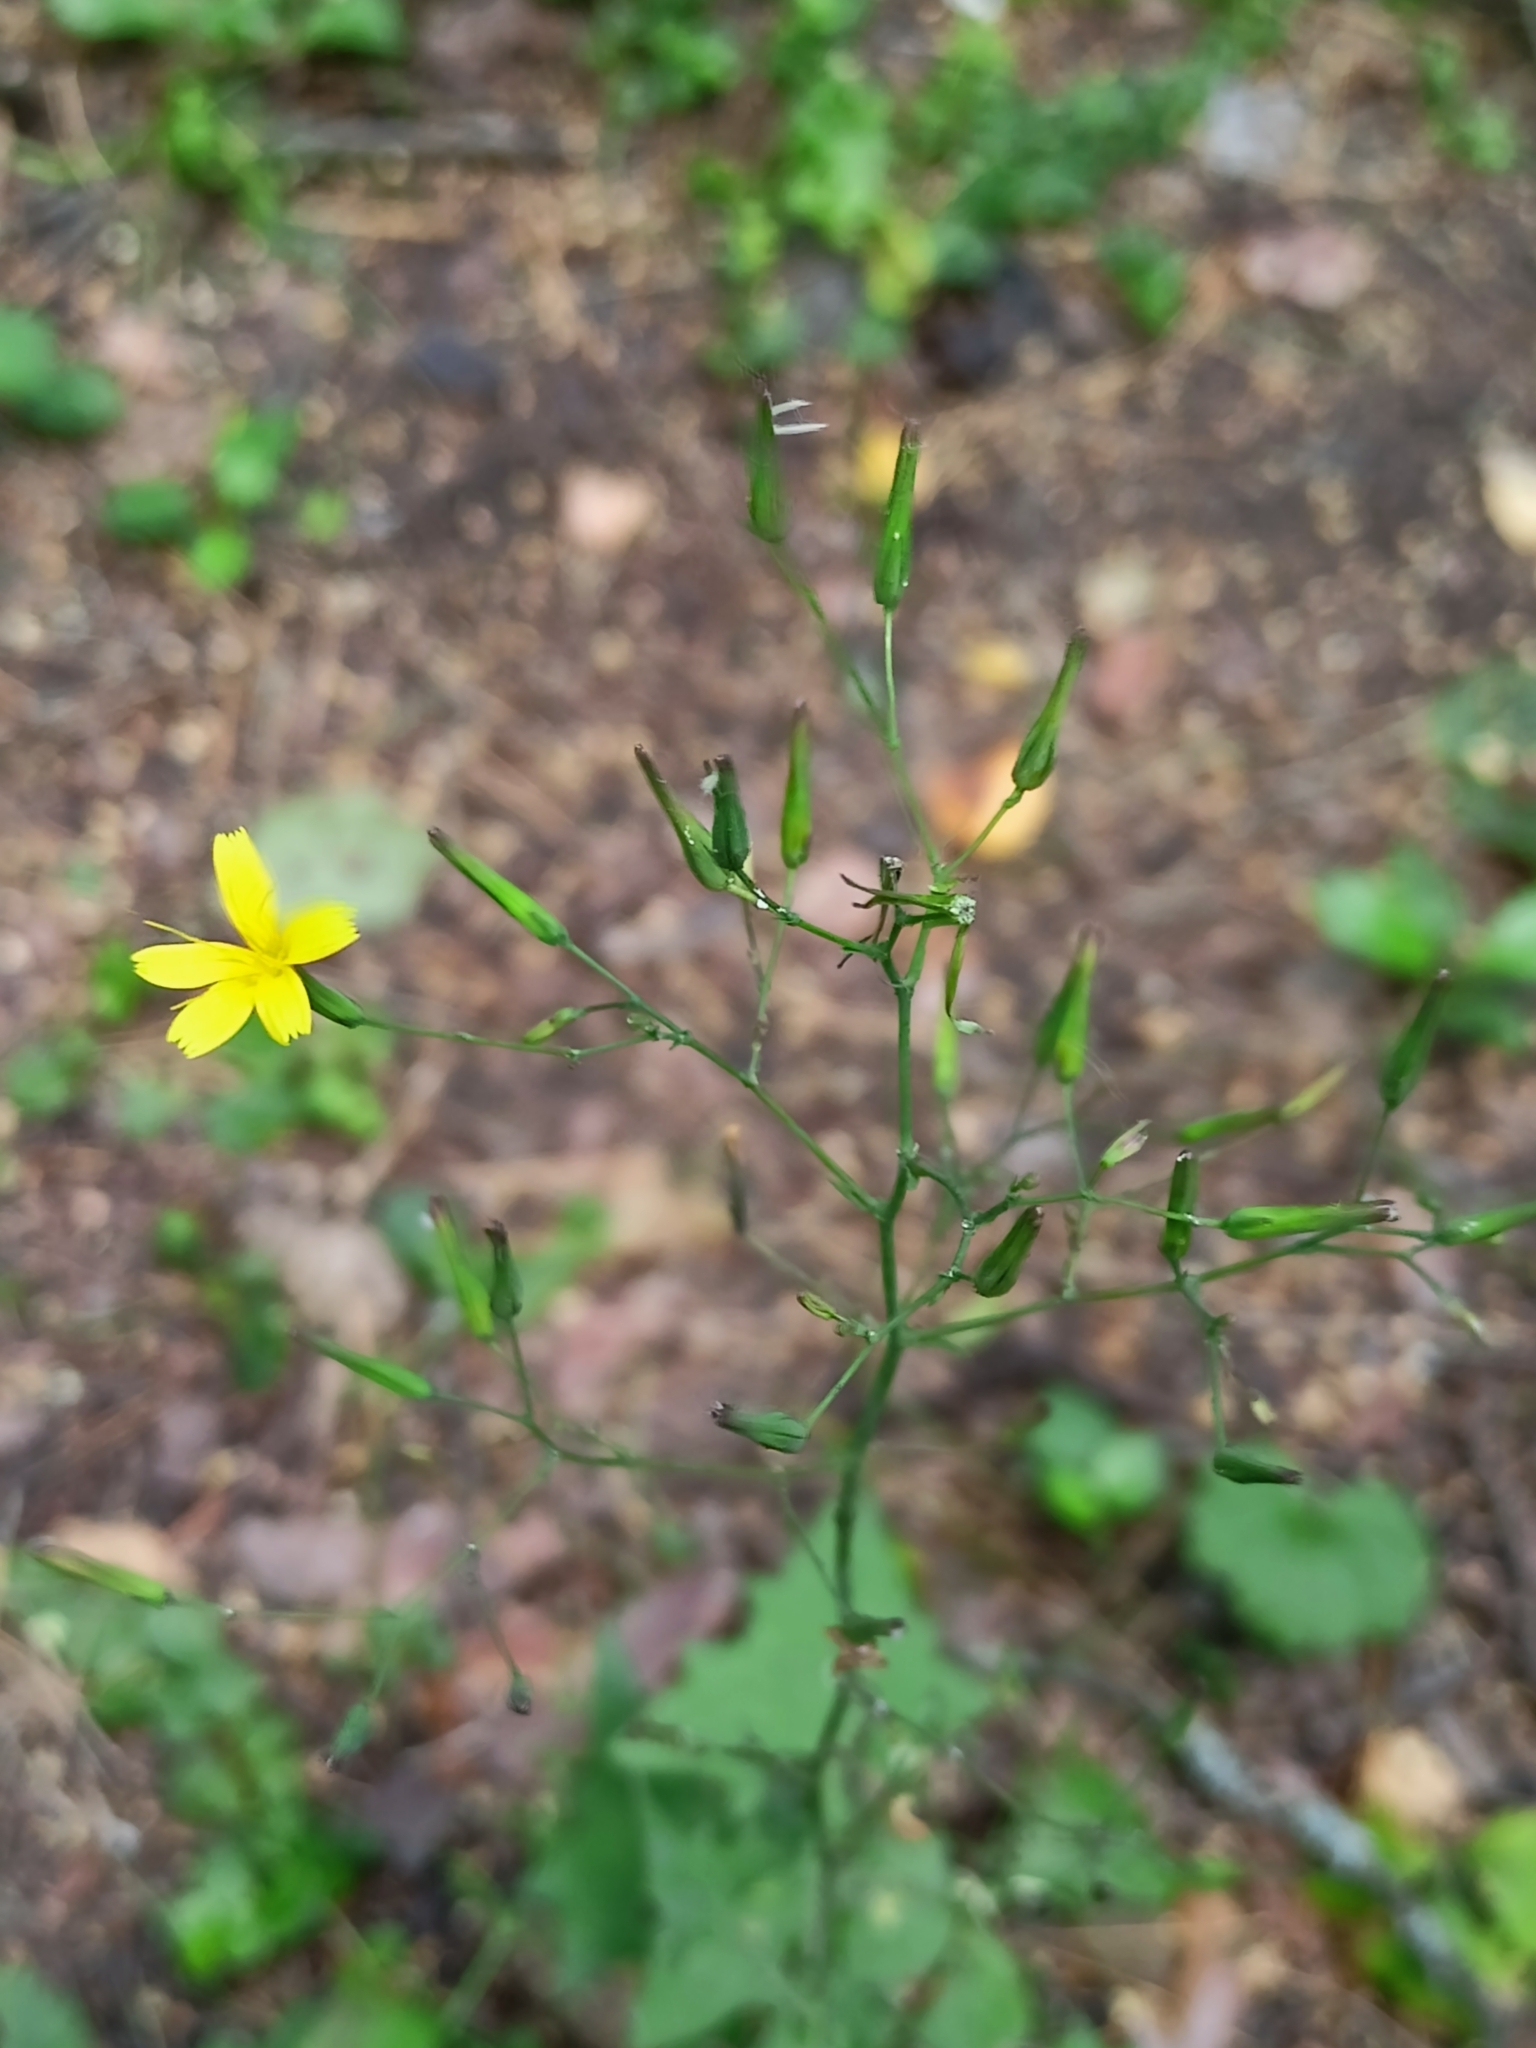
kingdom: Plantae
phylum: Tracheophyta
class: Magnoliopsida
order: Asterales
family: Asteraceae
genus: Mycelis
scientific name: Mycelis muralis
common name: Wall lettuce
